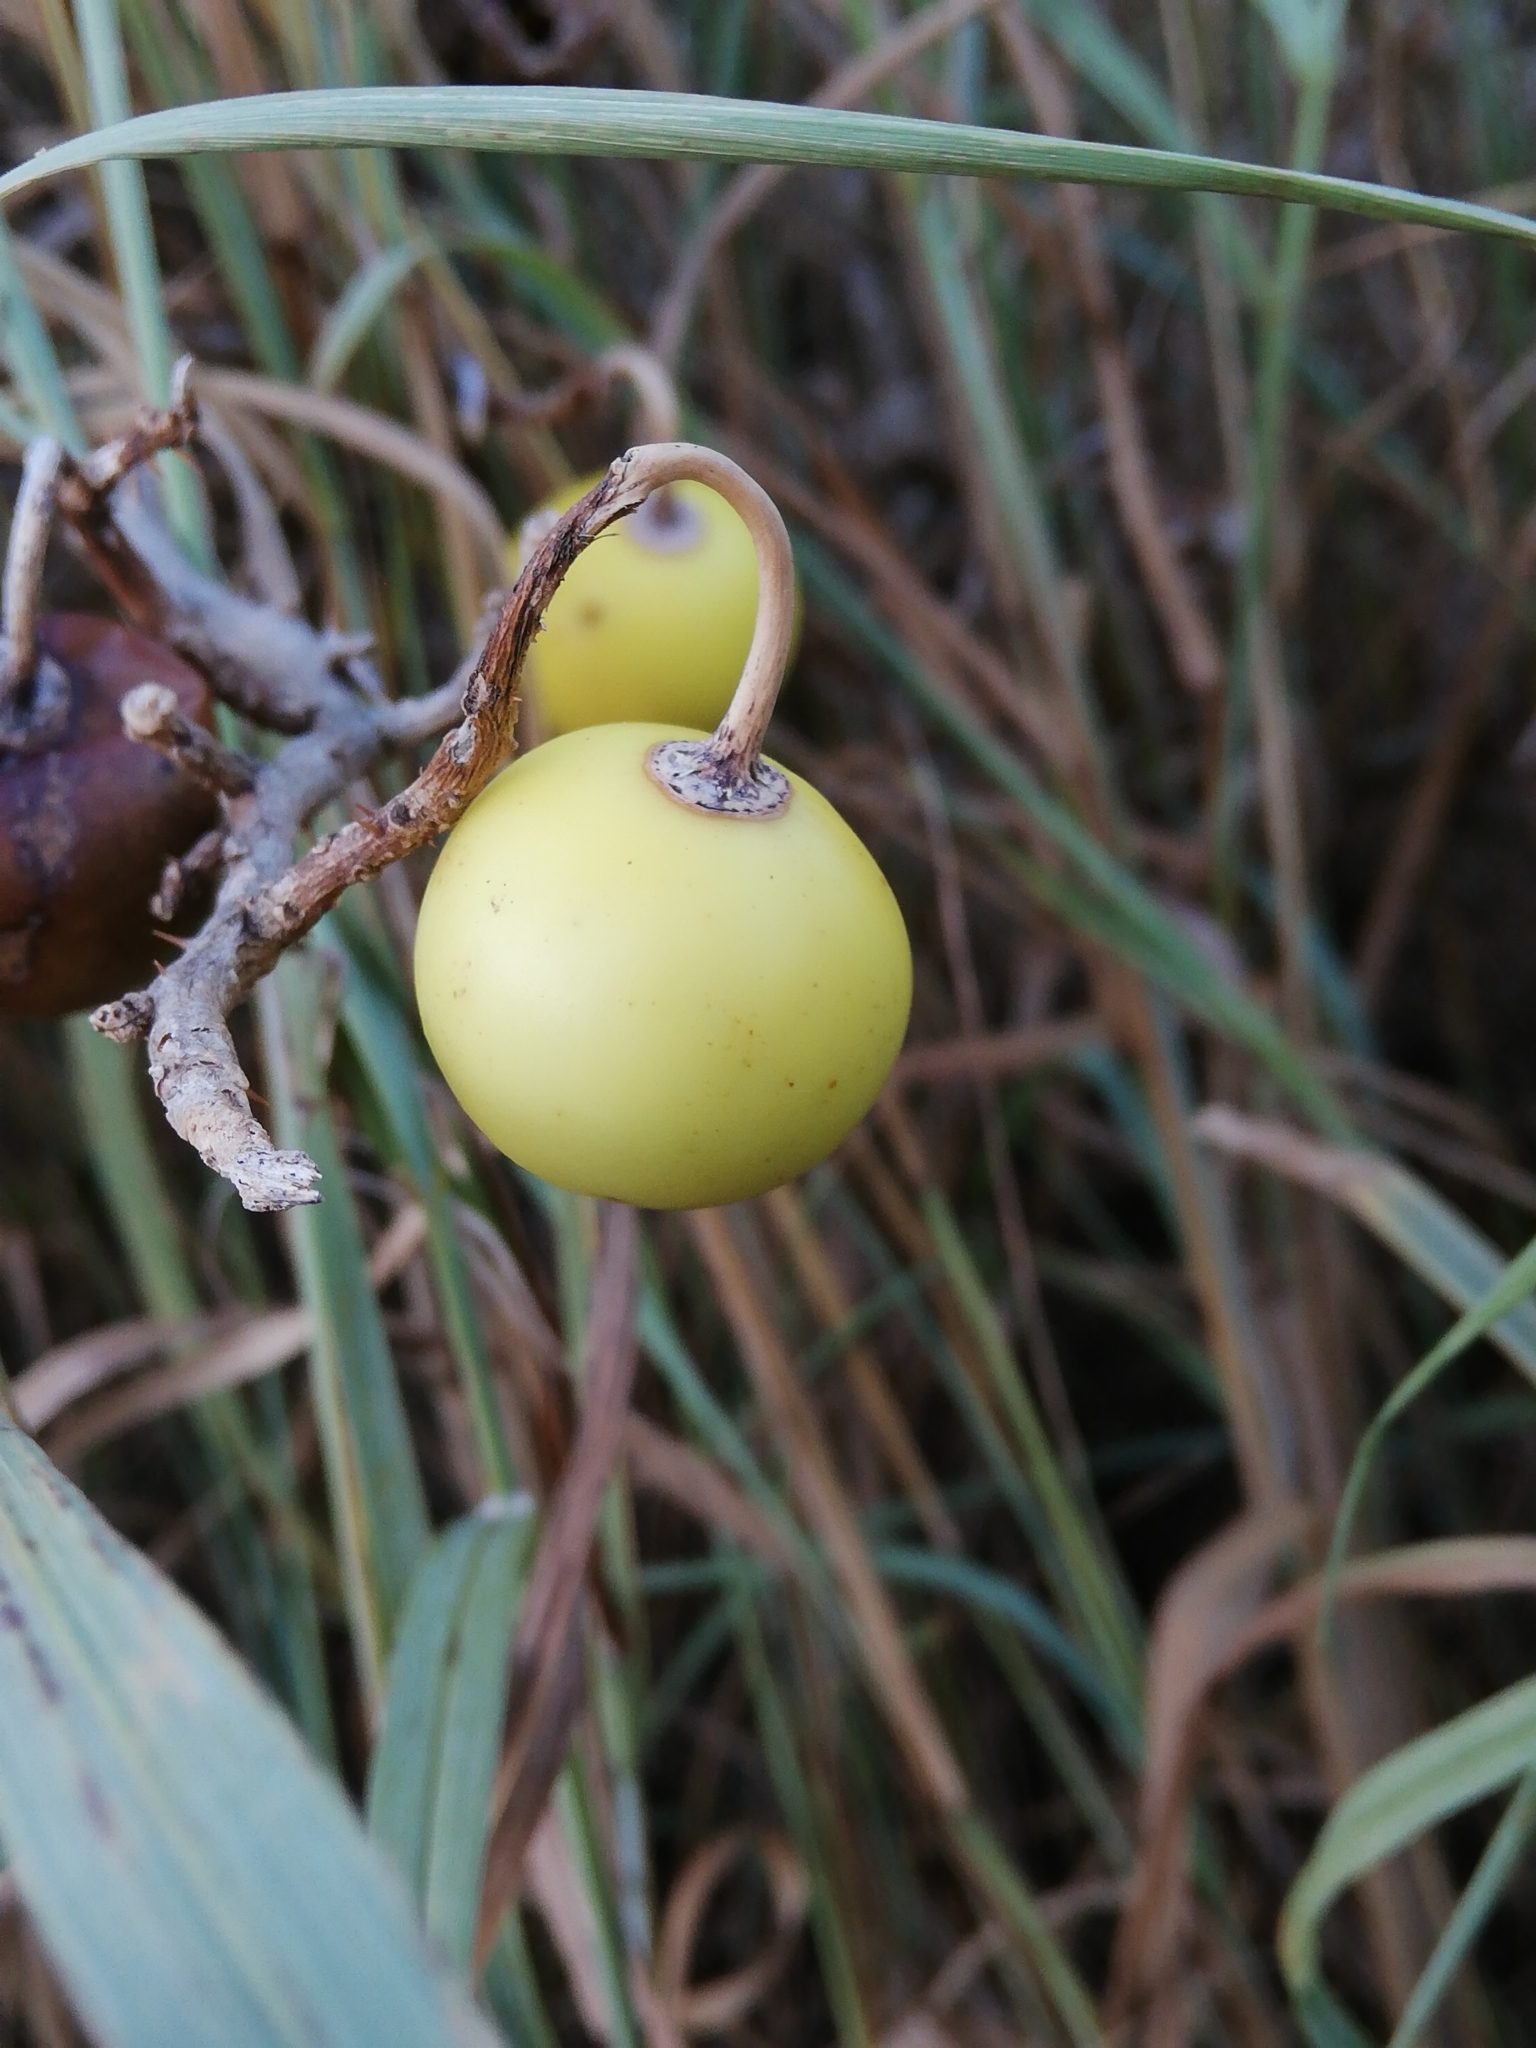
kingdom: Plantae
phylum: Tracheophyta
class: Magnoliopsida
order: Solanales
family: Solanaceae
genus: Solanum
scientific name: Solanum linnaeanum
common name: Nightshade
